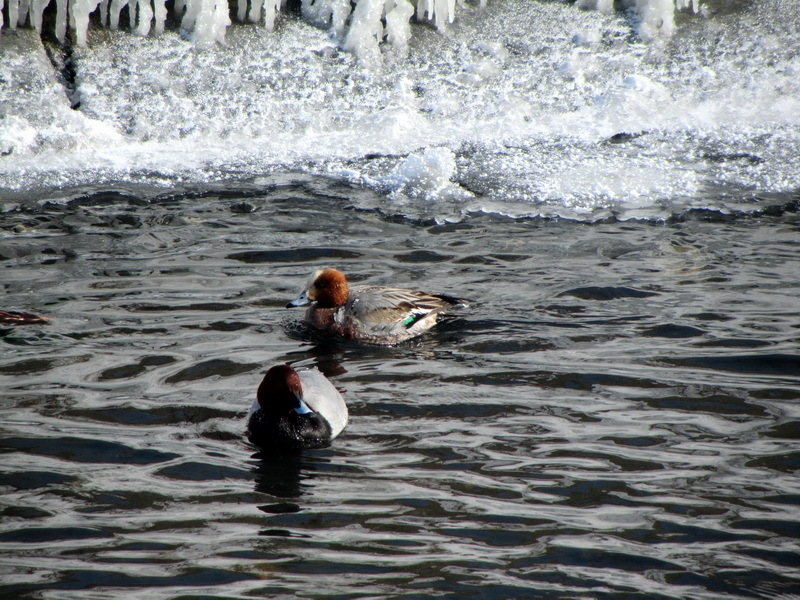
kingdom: Animalia
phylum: Chordata
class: Aves
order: Anseriformes
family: Anatidae
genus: Mareca
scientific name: Mareca penelope
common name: Eurasian wigeon
